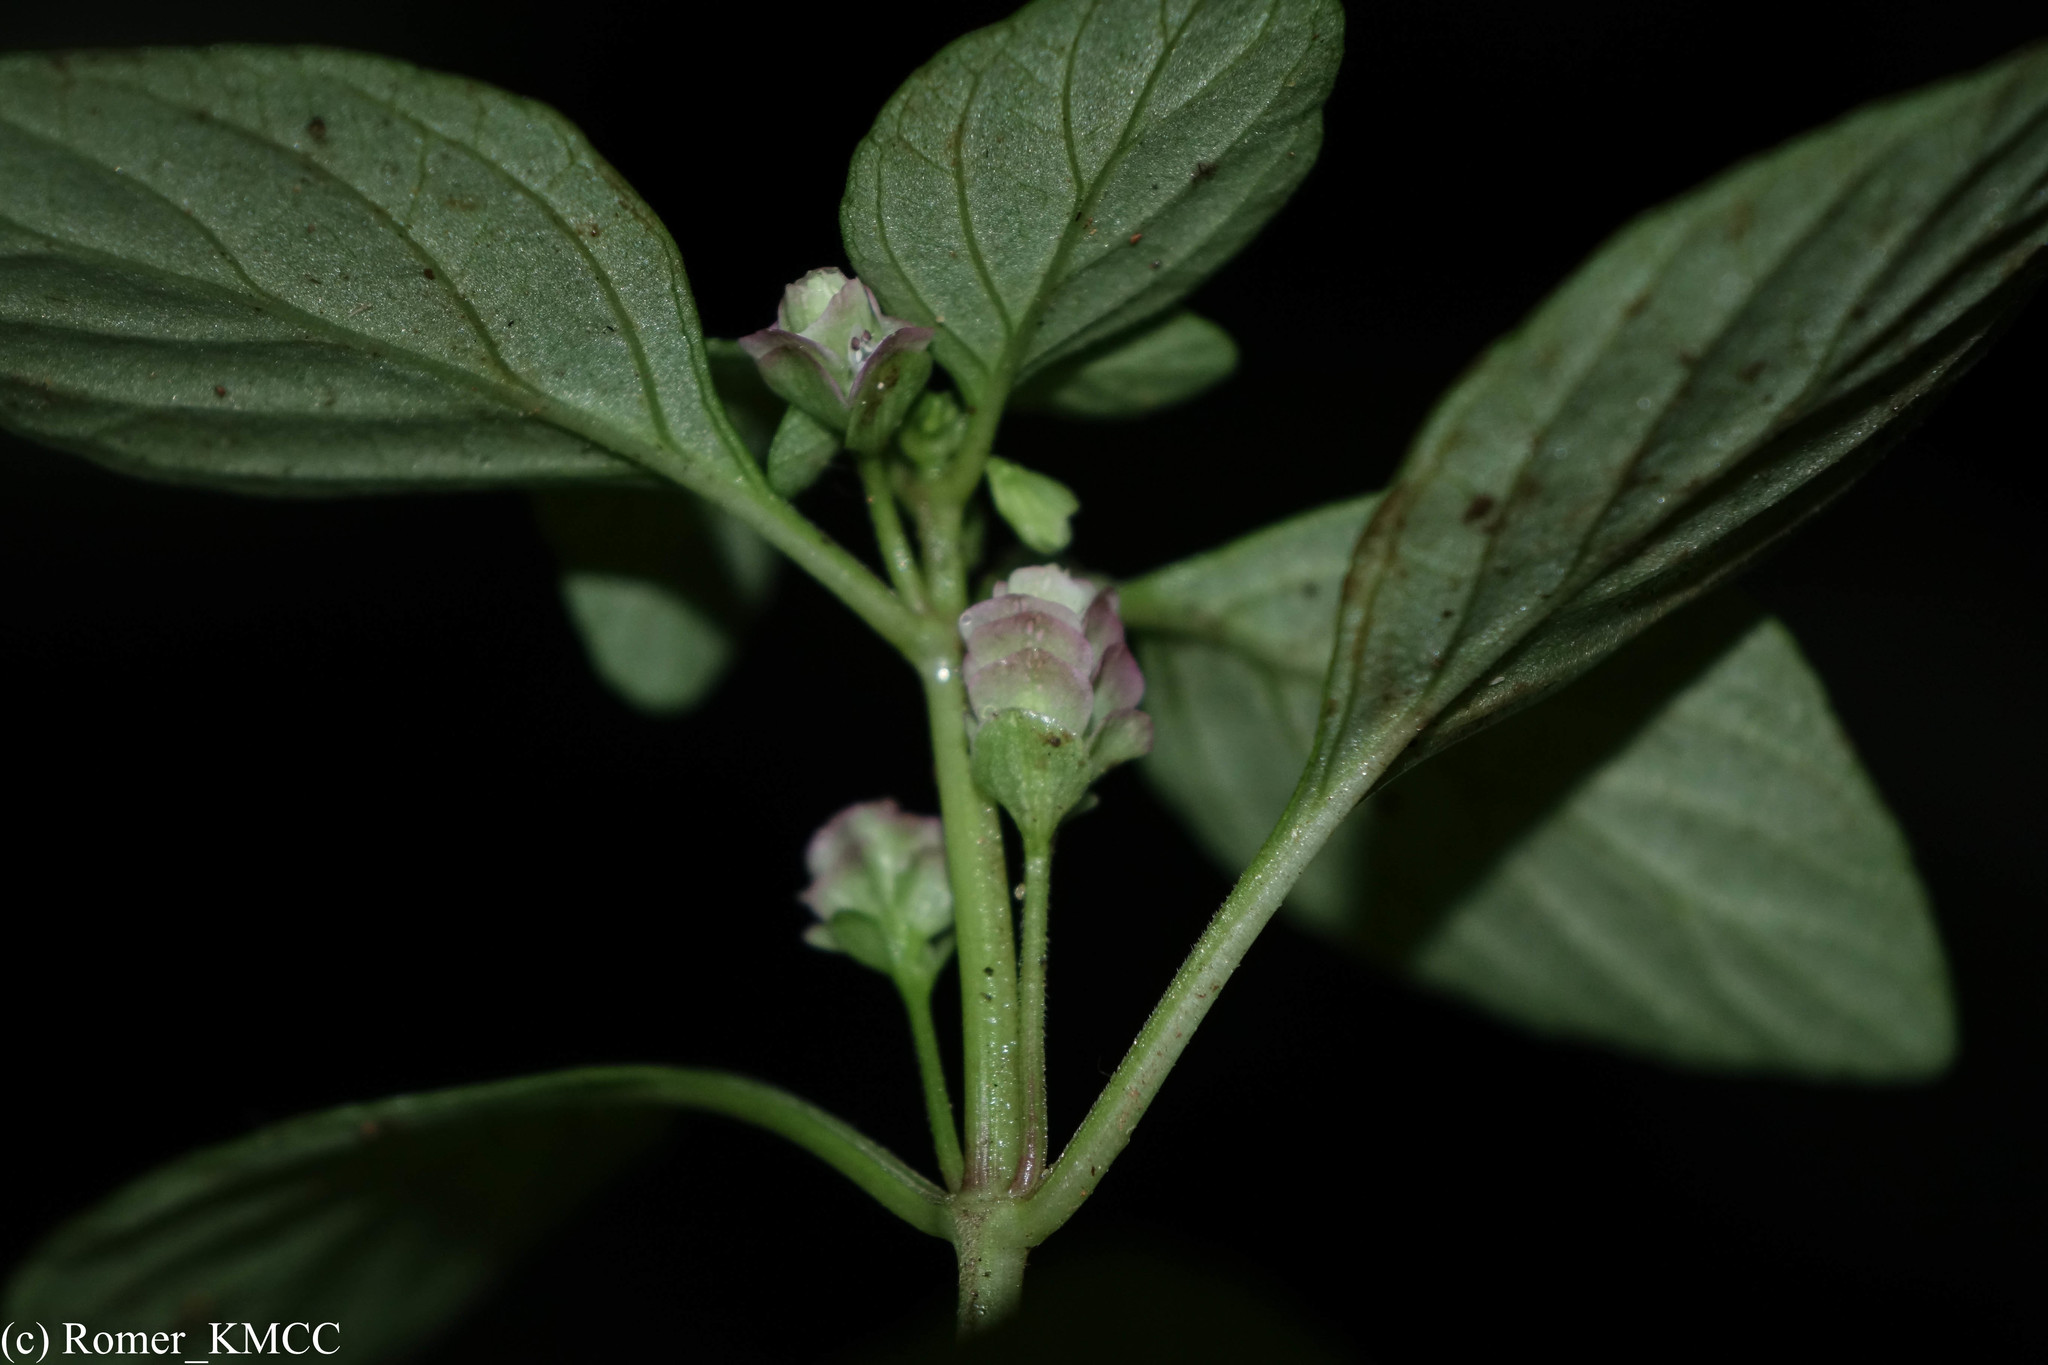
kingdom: Plantae
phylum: Tracheophyta
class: Magnoliopsida
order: Lamiales
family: Acanthaceae
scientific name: Acanthaceae
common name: Acanthaceae
